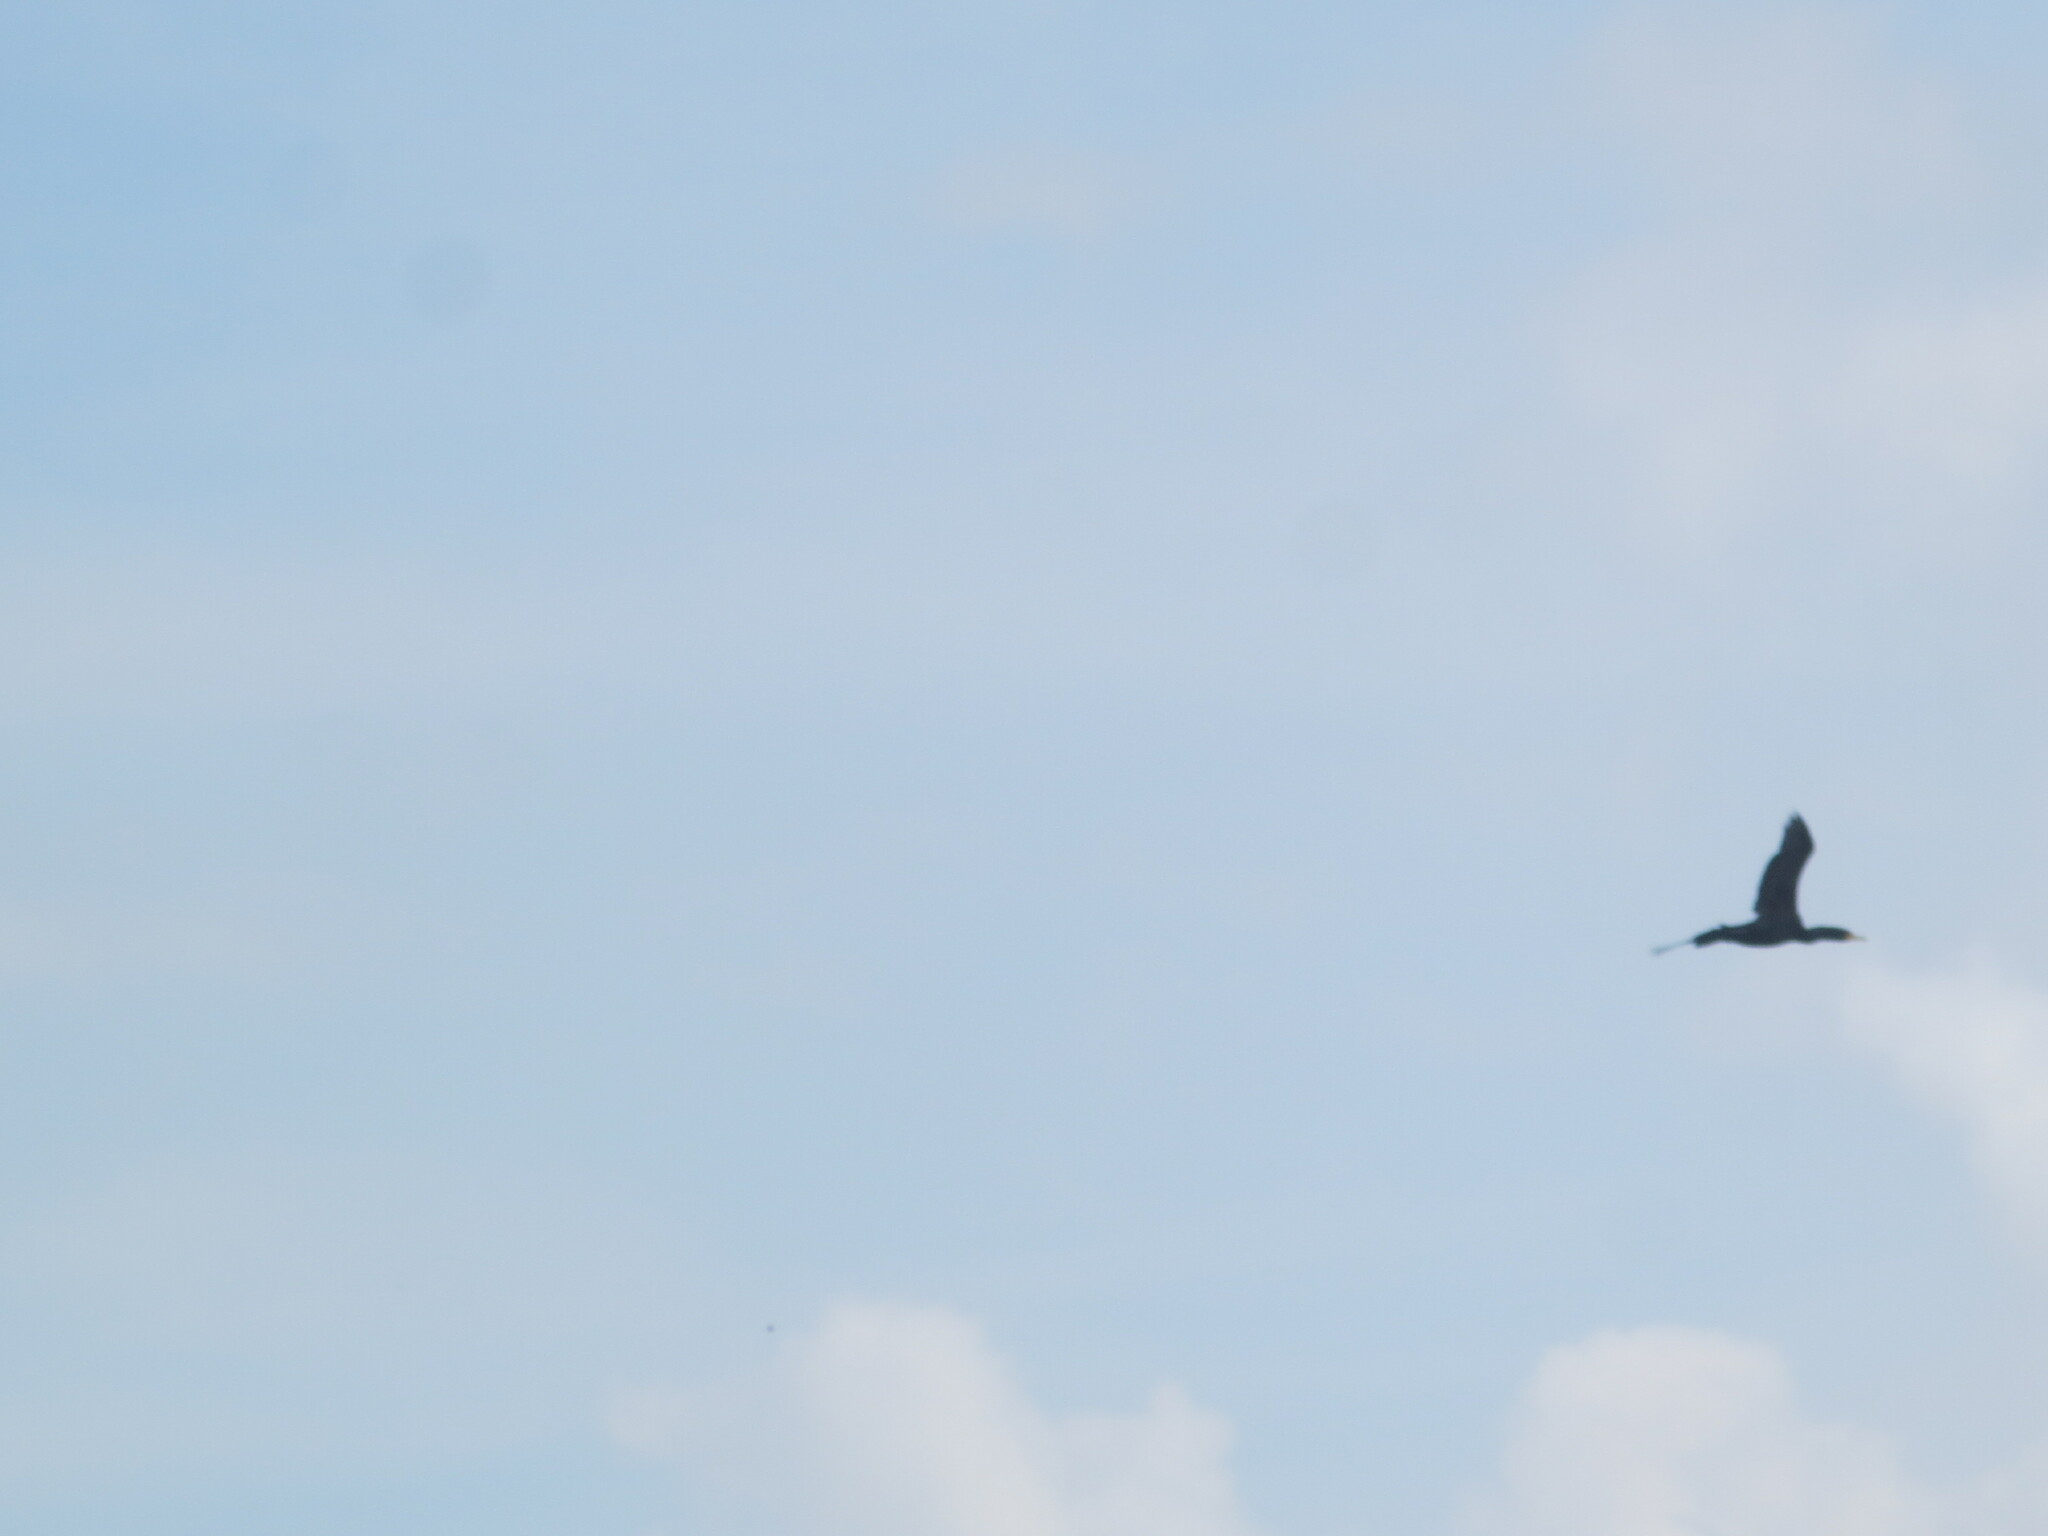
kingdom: Animalia
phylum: Chordata
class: Aves
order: Suliformes
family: Anhingidae
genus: Anhinga
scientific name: Anhinga anhinga
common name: Anhinga
